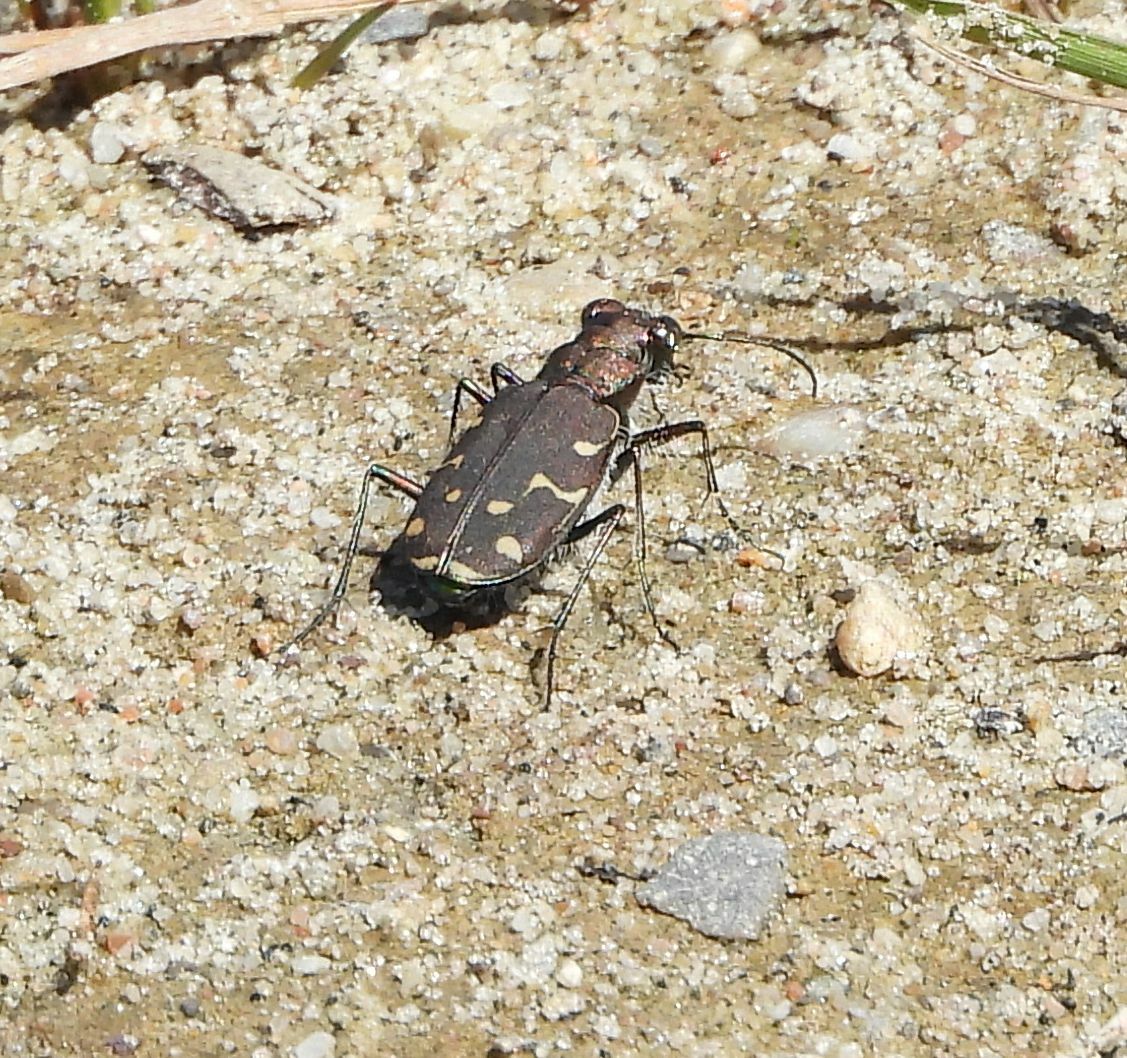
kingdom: Animalia
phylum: Arthropoda
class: Insecta
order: Coleoptera
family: Carabidae
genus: Cicindela
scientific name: Cicindela duodecimguttata
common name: Twelve-spotted tiger beetle
